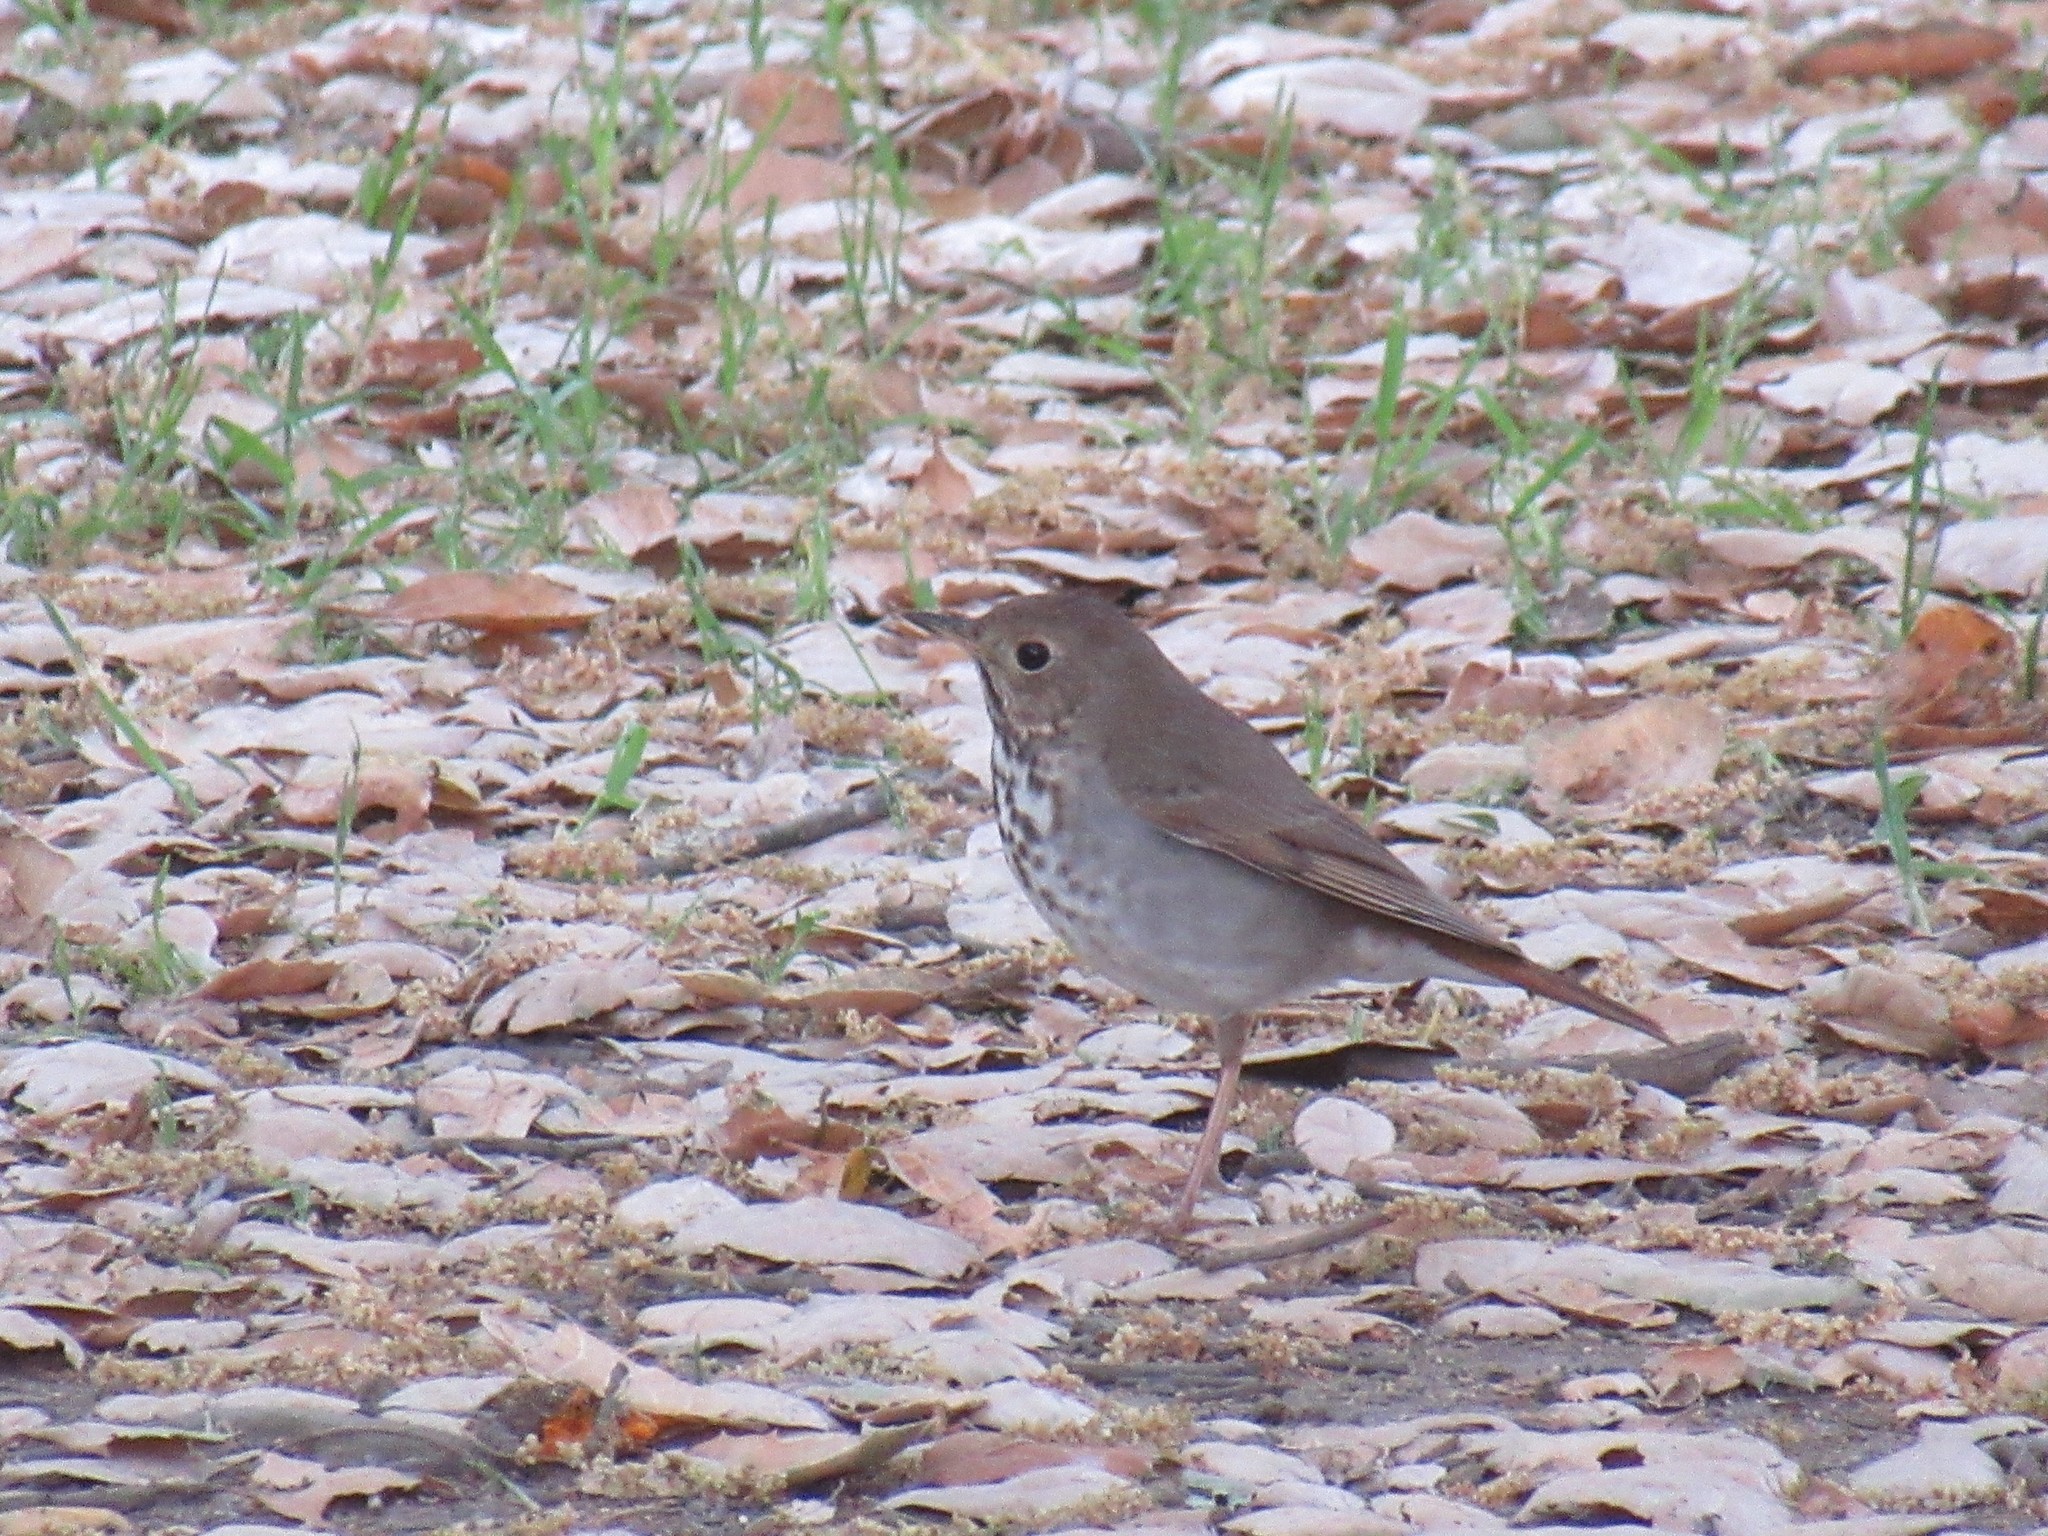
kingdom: Animalia
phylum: Chordata
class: Aves
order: Passeriformes
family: Turdidae
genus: Catharus
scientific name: Catharus guttatus
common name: Hermit thrush
